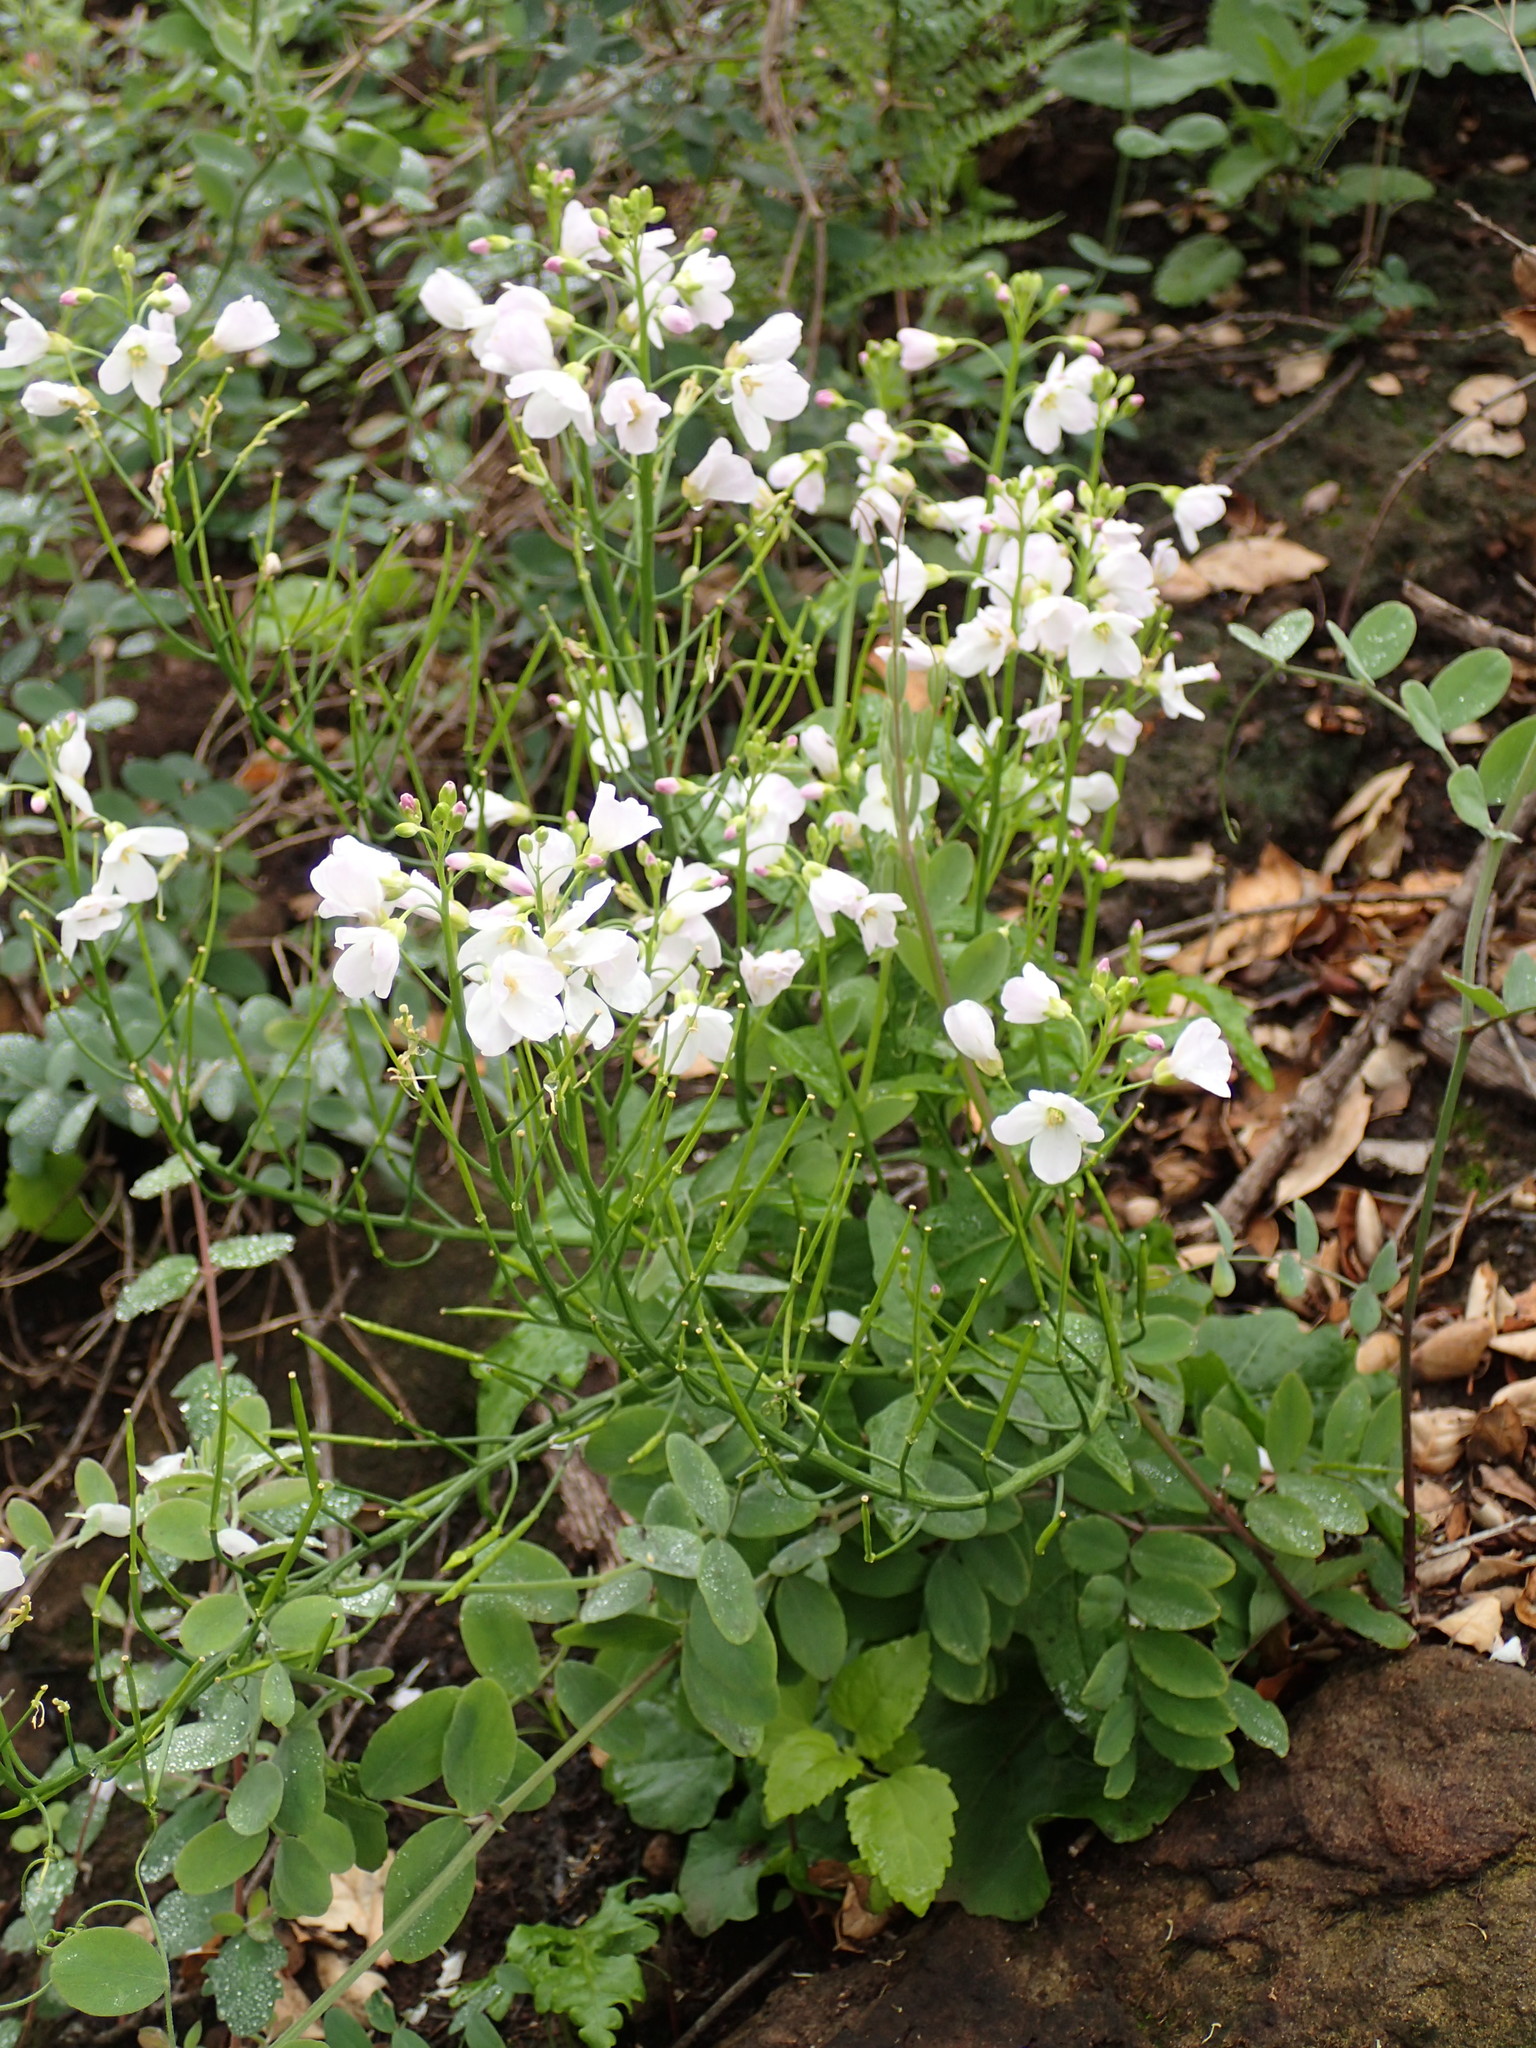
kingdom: Plantae
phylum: Tracheophyta
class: Magnoliopsida
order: Brassicales
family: Brassicaceae
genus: Cardamine
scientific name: Cardamine californica
